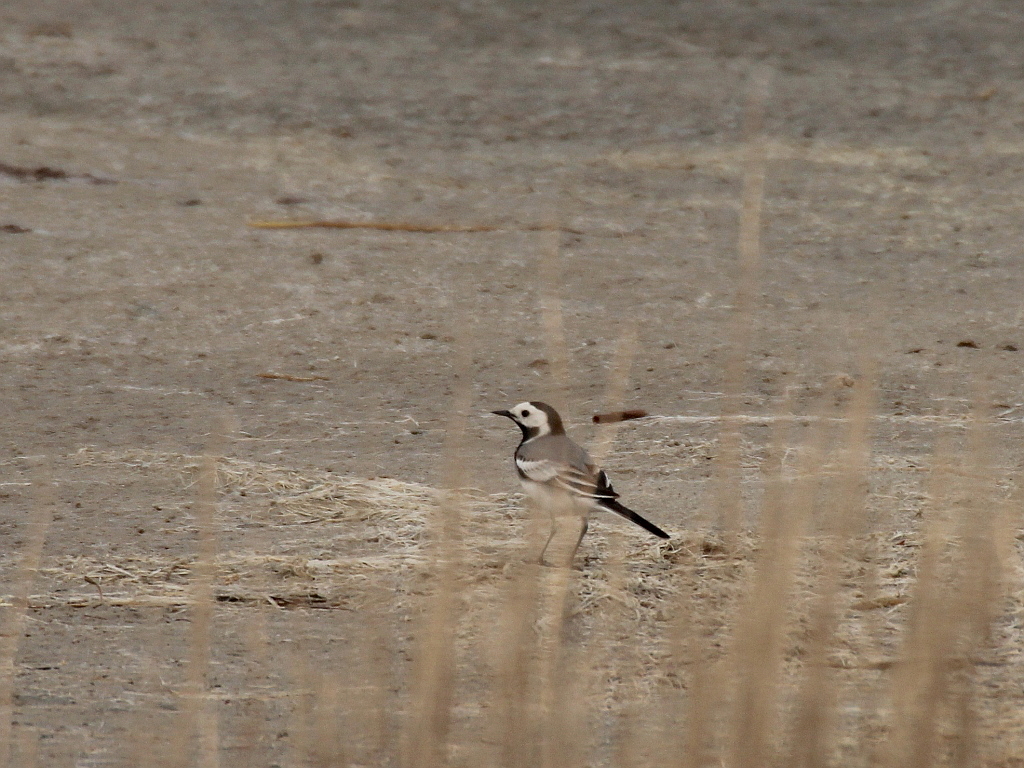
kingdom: Animalia
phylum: Chordata
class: Aves
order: Passeriformes
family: Motacillidae
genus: Motacilla
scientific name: Motacilla alba
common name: White wagtail
